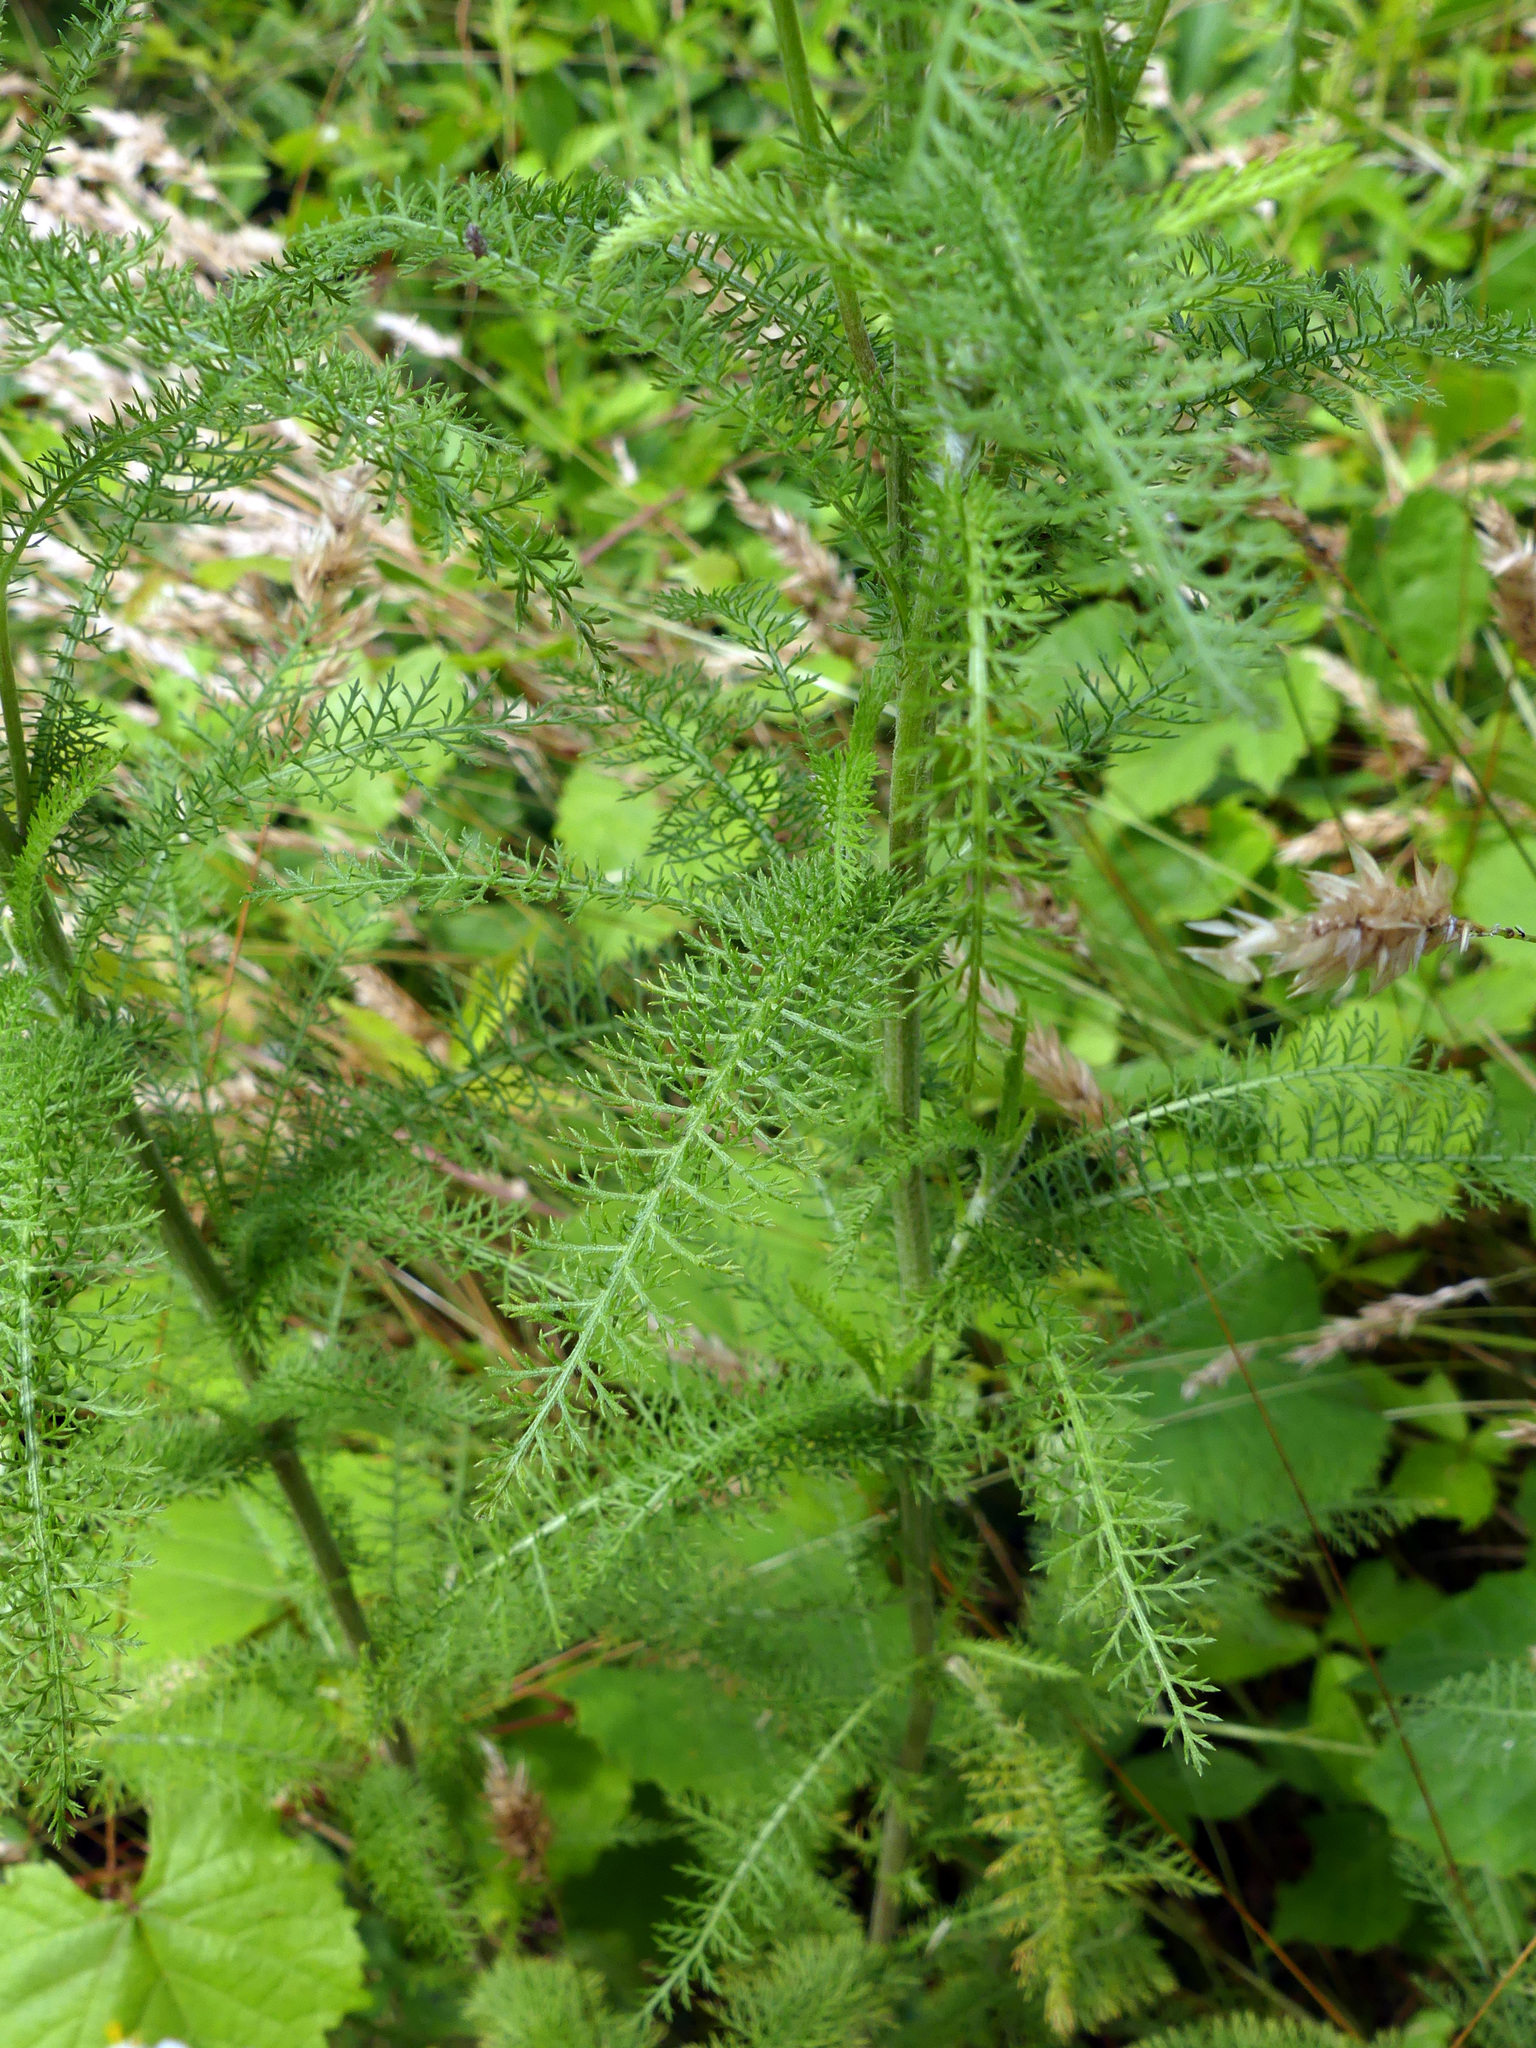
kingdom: Plantae
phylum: Tracheophyta
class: Magnoliopsida
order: Asterales
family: Asteraceae
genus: Achillea
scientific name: Achillea millefolium
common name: Yarrow
